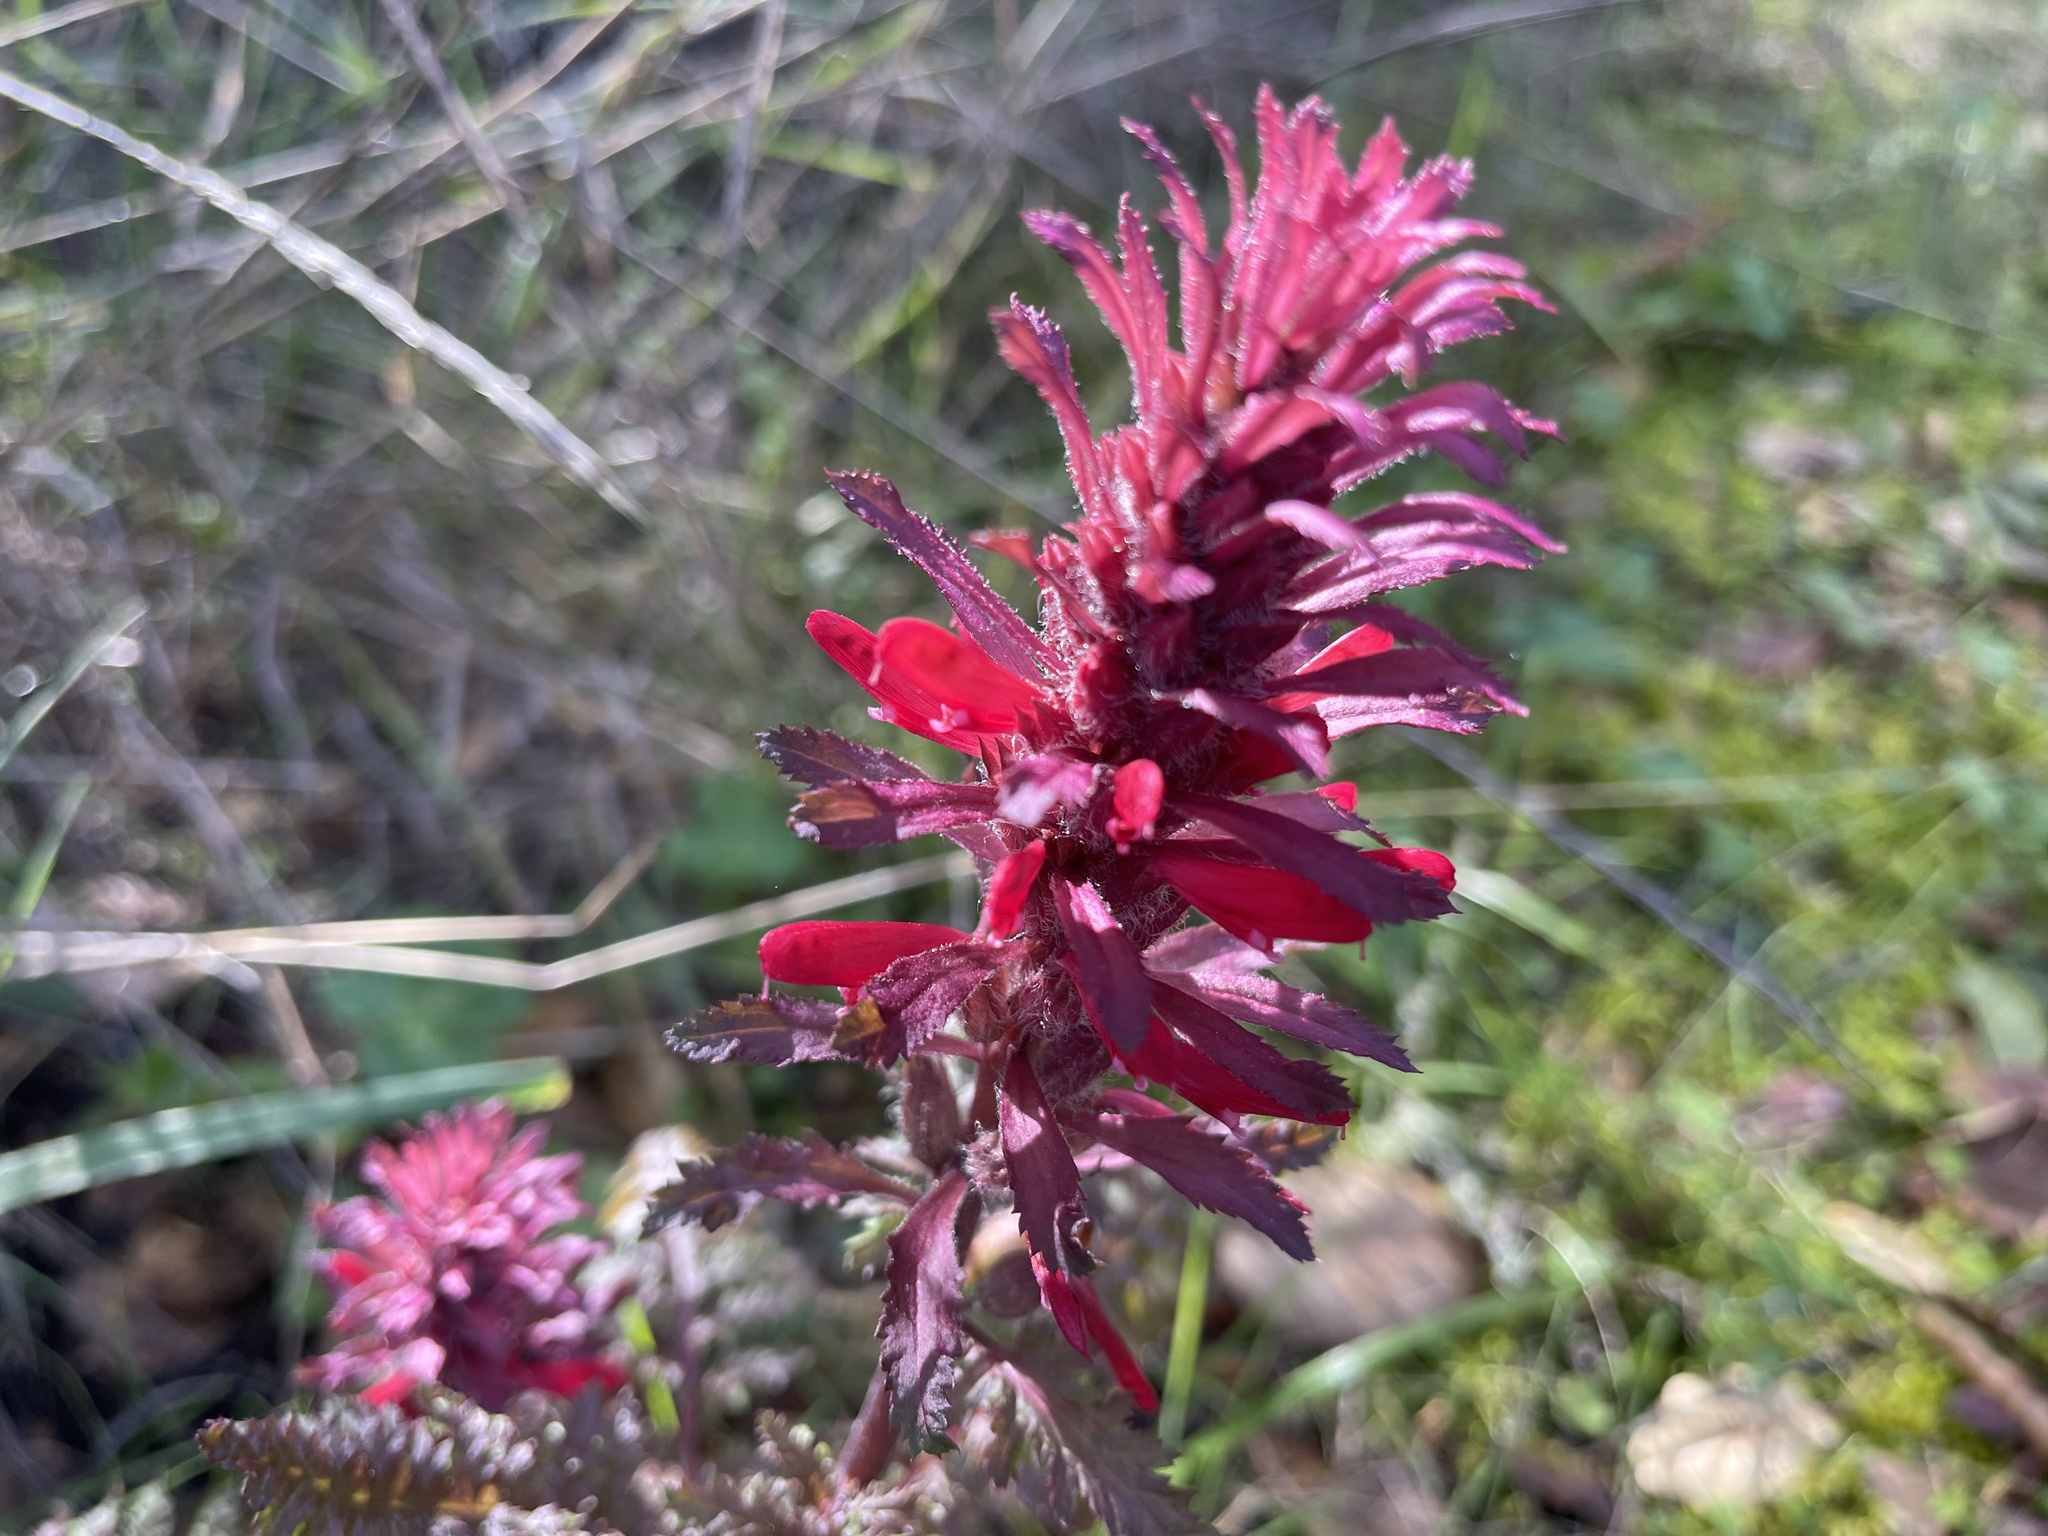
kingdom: Plantae
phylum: Tracheophyta
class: Magnoliopsida
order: Lamiales
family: Orobanchaceae
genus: Pedicularis
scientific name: Pedicularis densiflora
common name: Indian warrior
